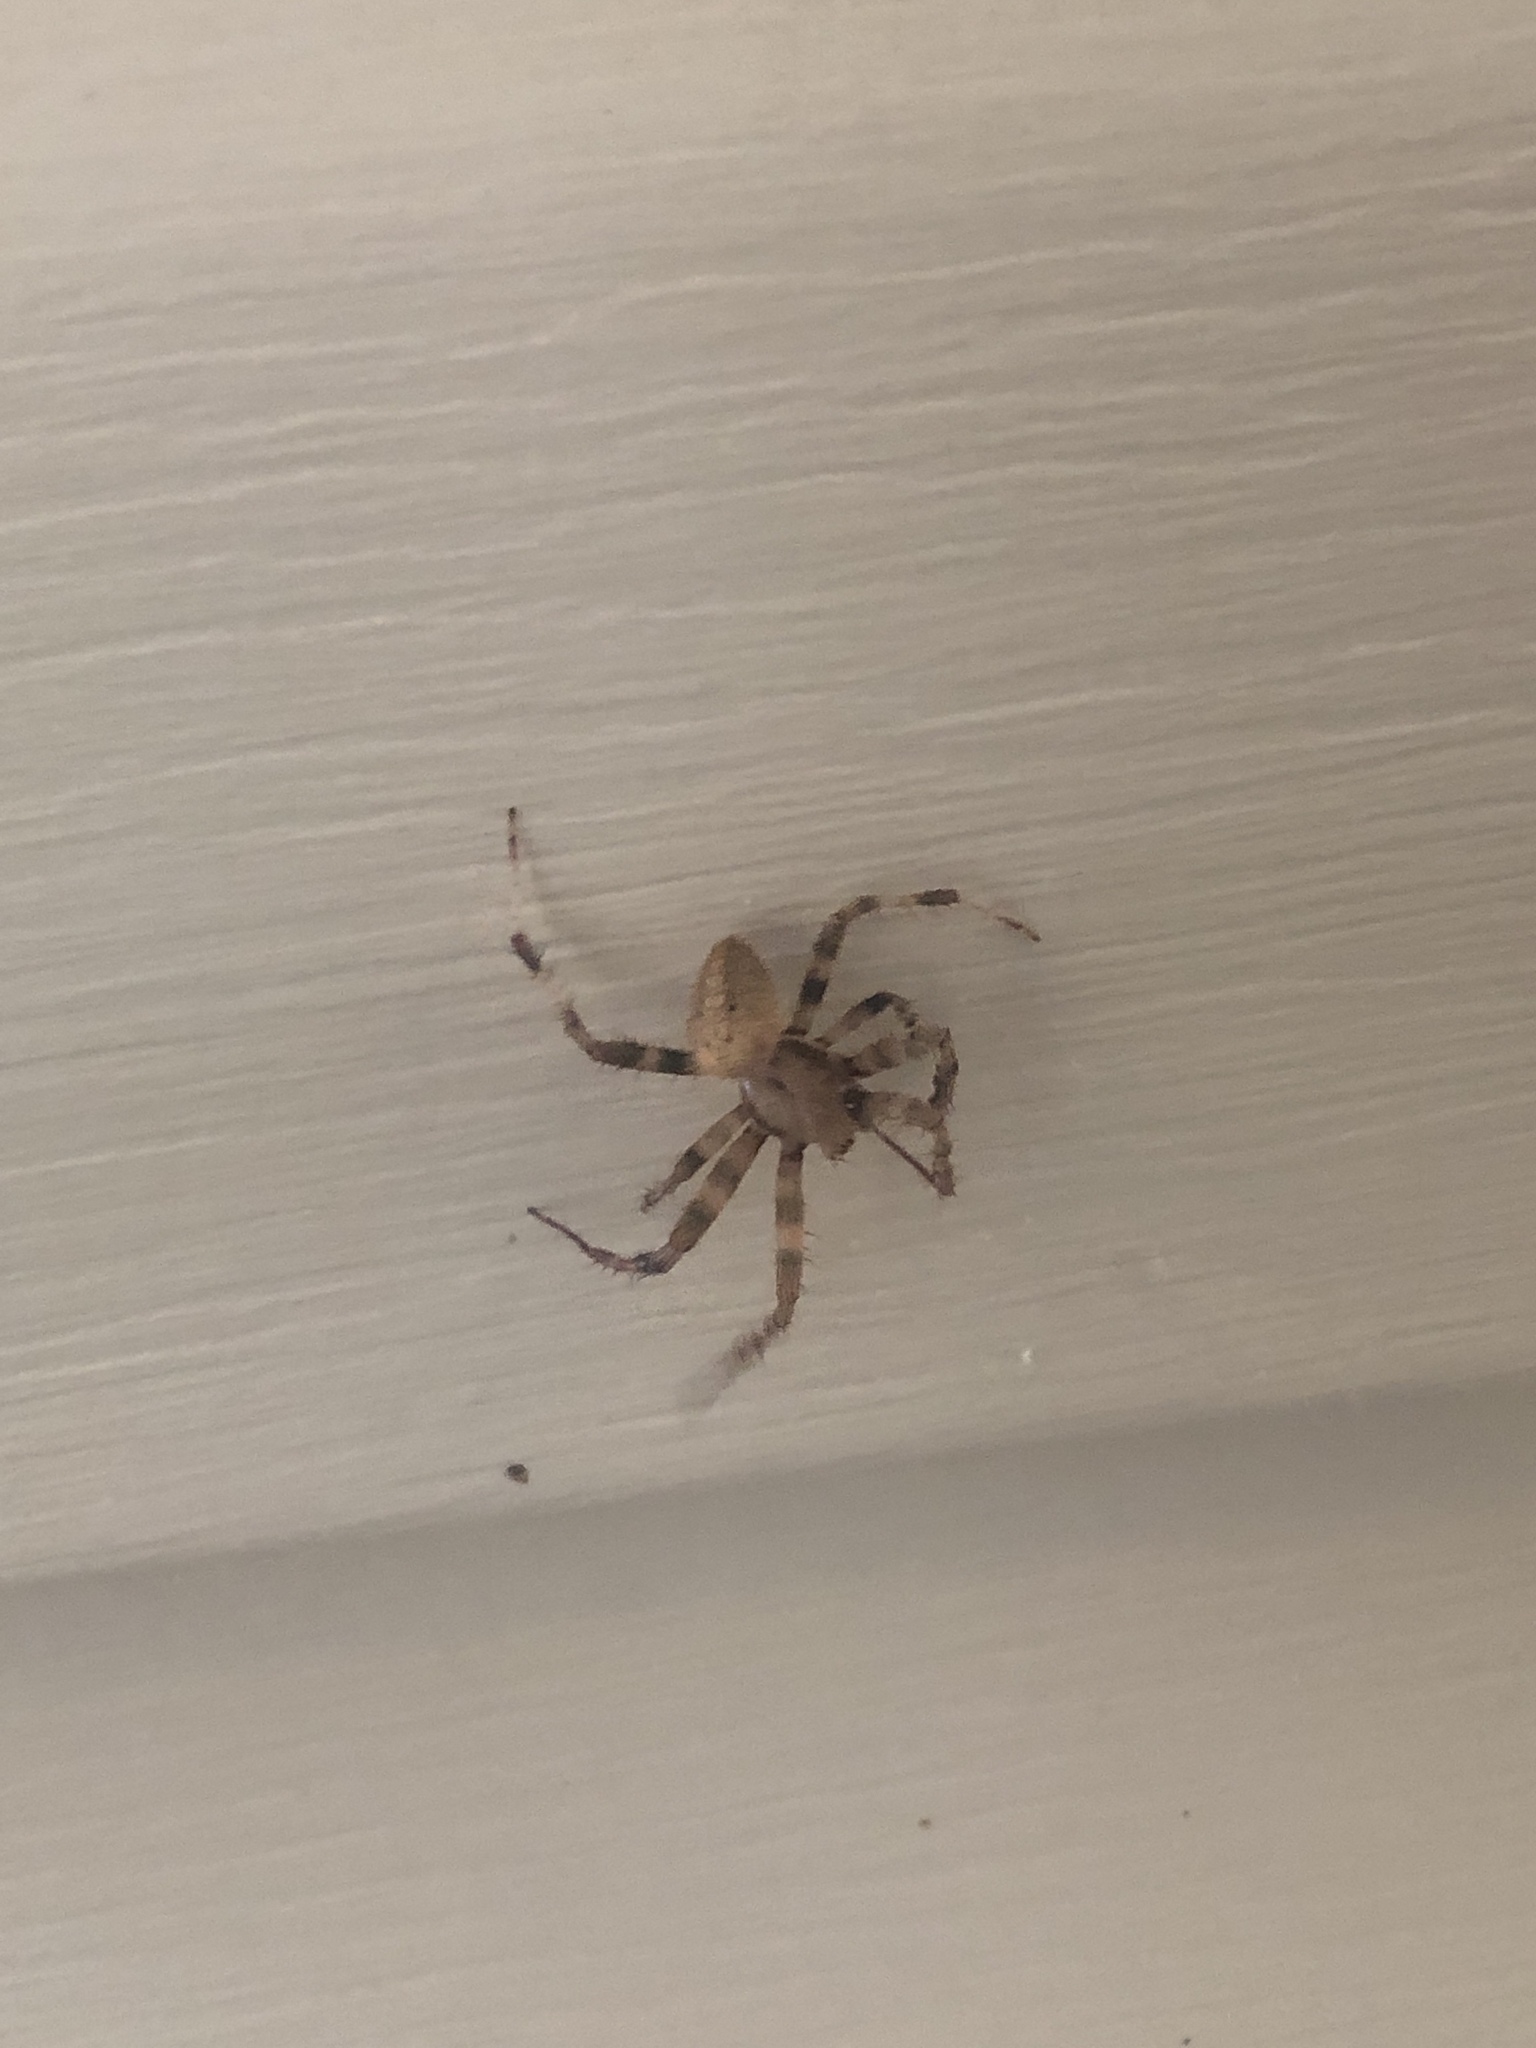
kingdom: Animalia
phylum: Arthropoda
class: Arachnida
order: Araneae
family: Araneidae
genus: Neoscona
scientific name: Neoscona crucifera
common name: Spotted orbweaver
